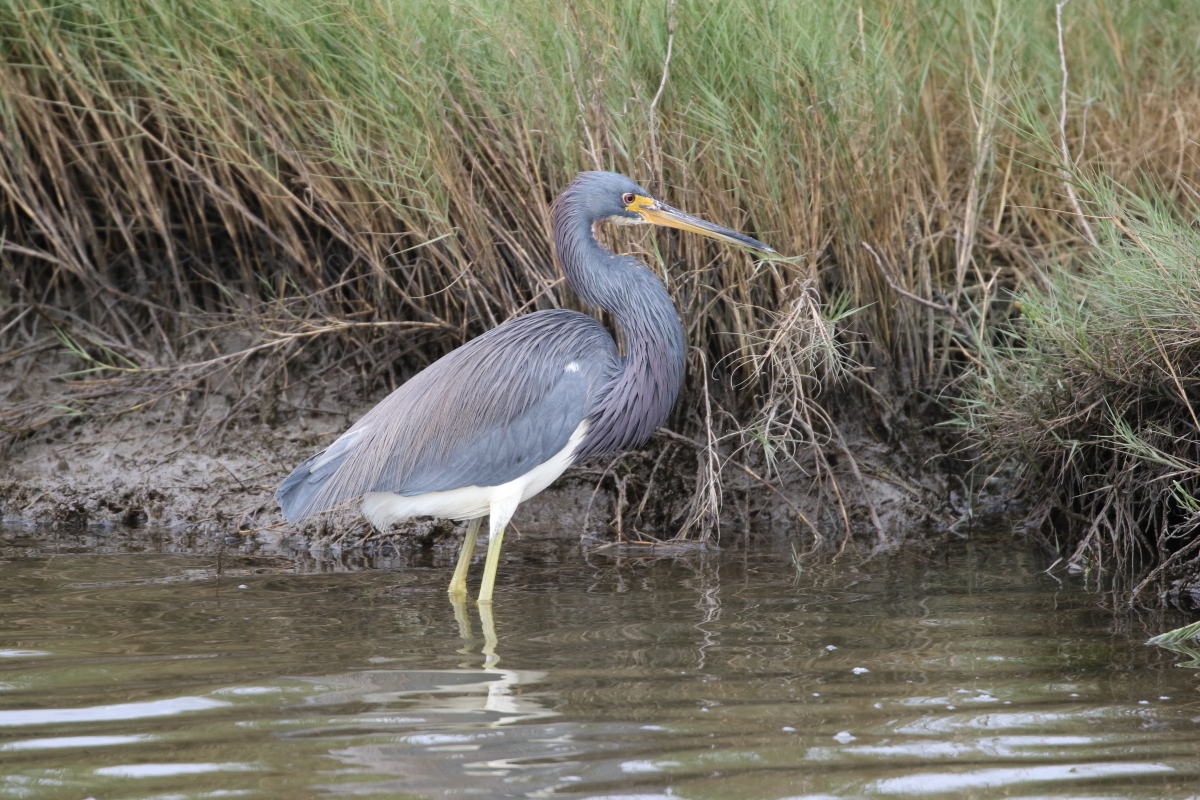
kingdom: Animalia
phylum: Chordata
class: Aves
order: Pelecaniformes
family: Ardeidae
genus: Egretta
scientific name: Egretta tricolor
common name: Tricolored heron
